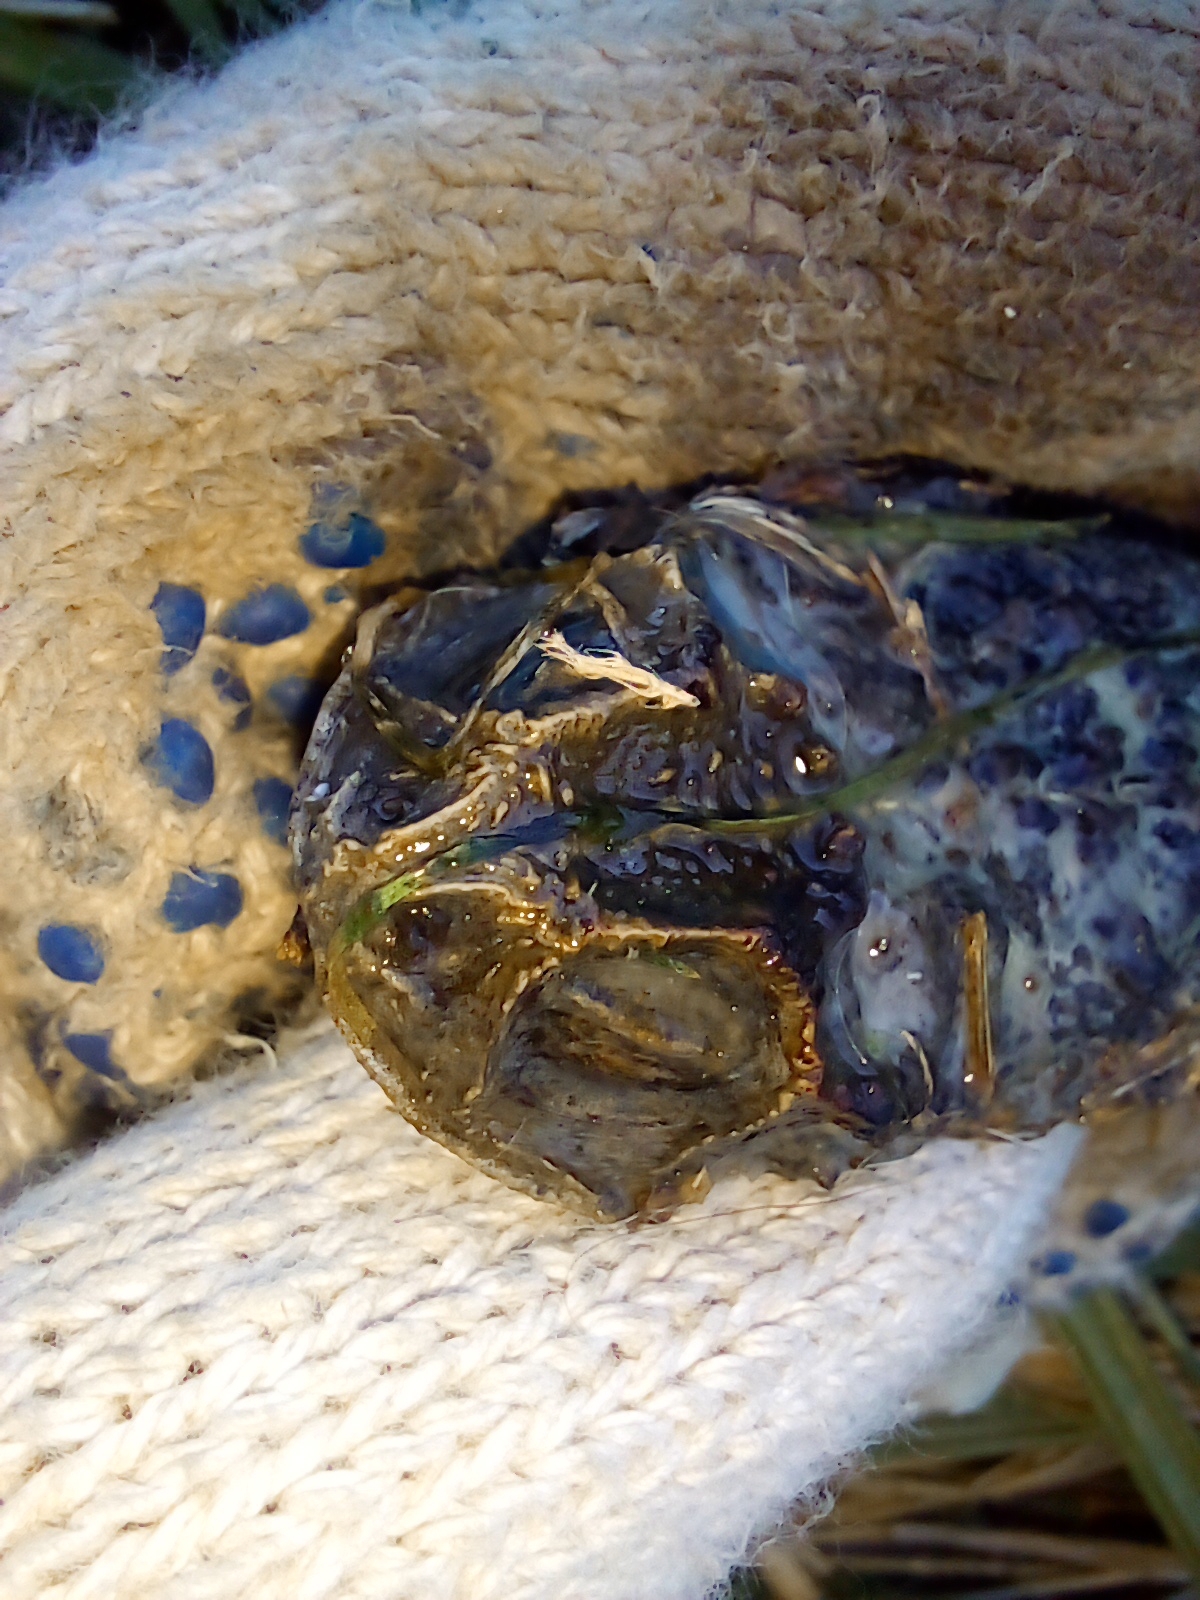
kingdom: Animalia
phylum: Chordata
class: Amphibia
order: Anura
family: Bufonidae
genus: Rhinella
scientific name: Rhinella dorbignyi
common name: D´orbigny’s toad
